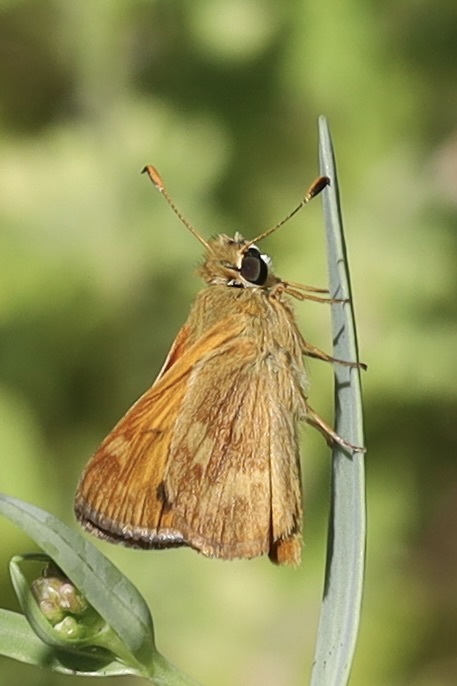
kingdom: Animalia
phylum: Arthropoda
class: Insecta
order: Lepidoptera
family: Hesperiidae
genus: Ochlodes
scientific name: Ochlodes sylvanoides
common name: Woodland skipper
